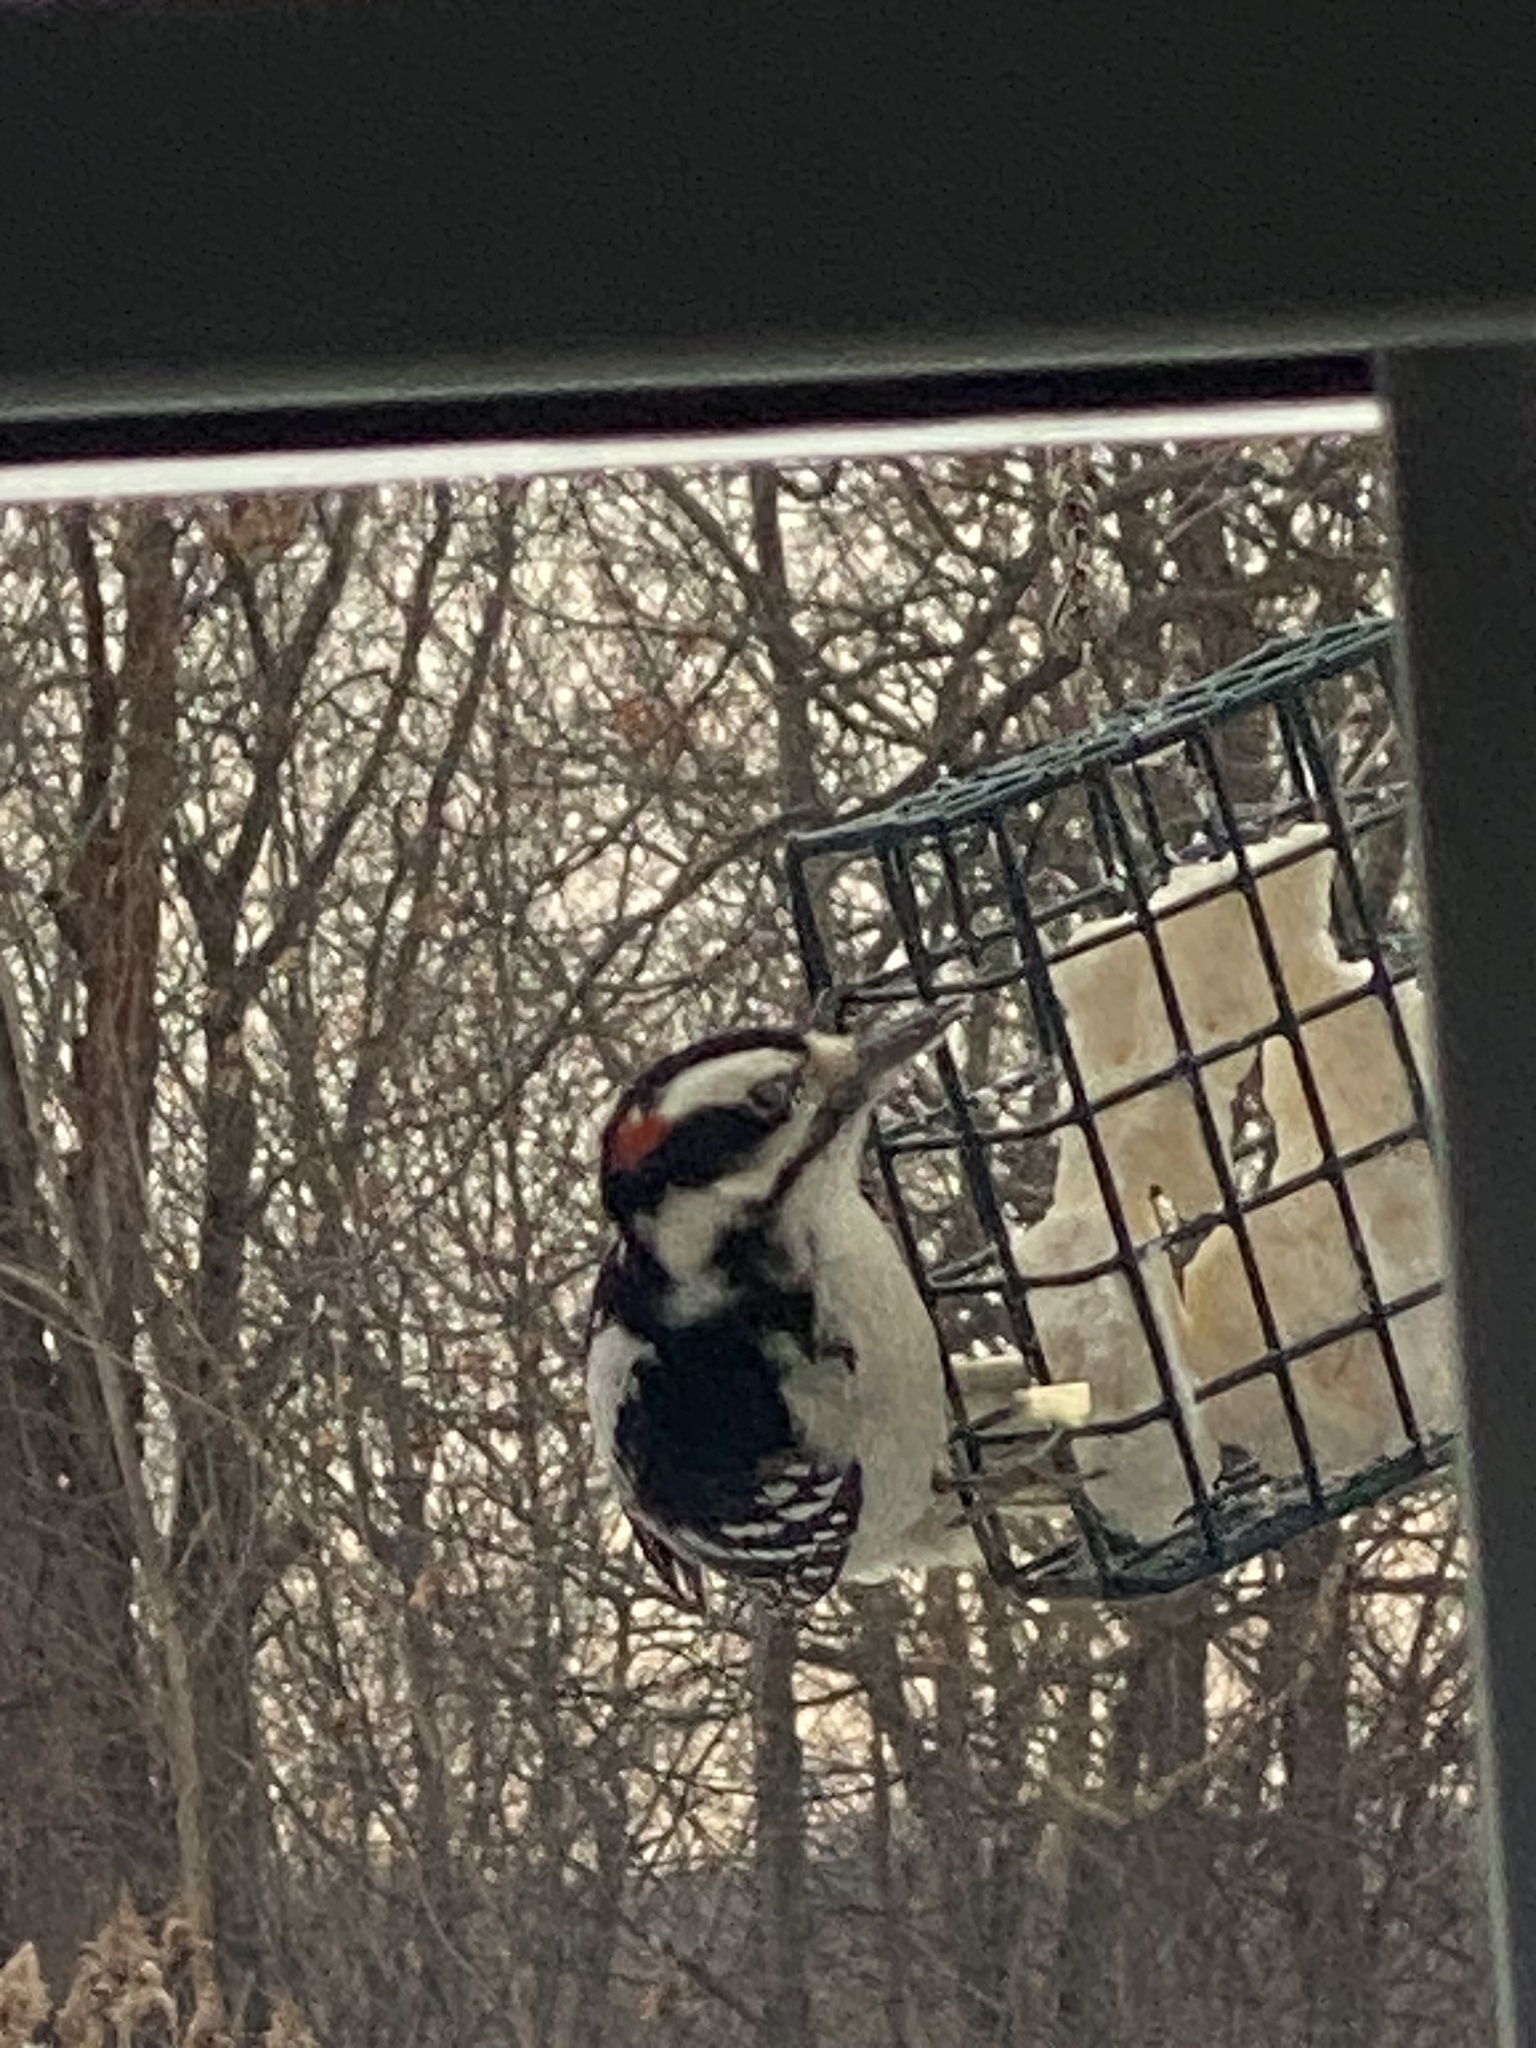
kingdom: Animalia
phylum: Chordata
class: Aves
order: Piciformes
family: Picidae
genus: Leuconotopicus
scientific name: Leuconotopicus villosus
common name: Hairy woodpecker
